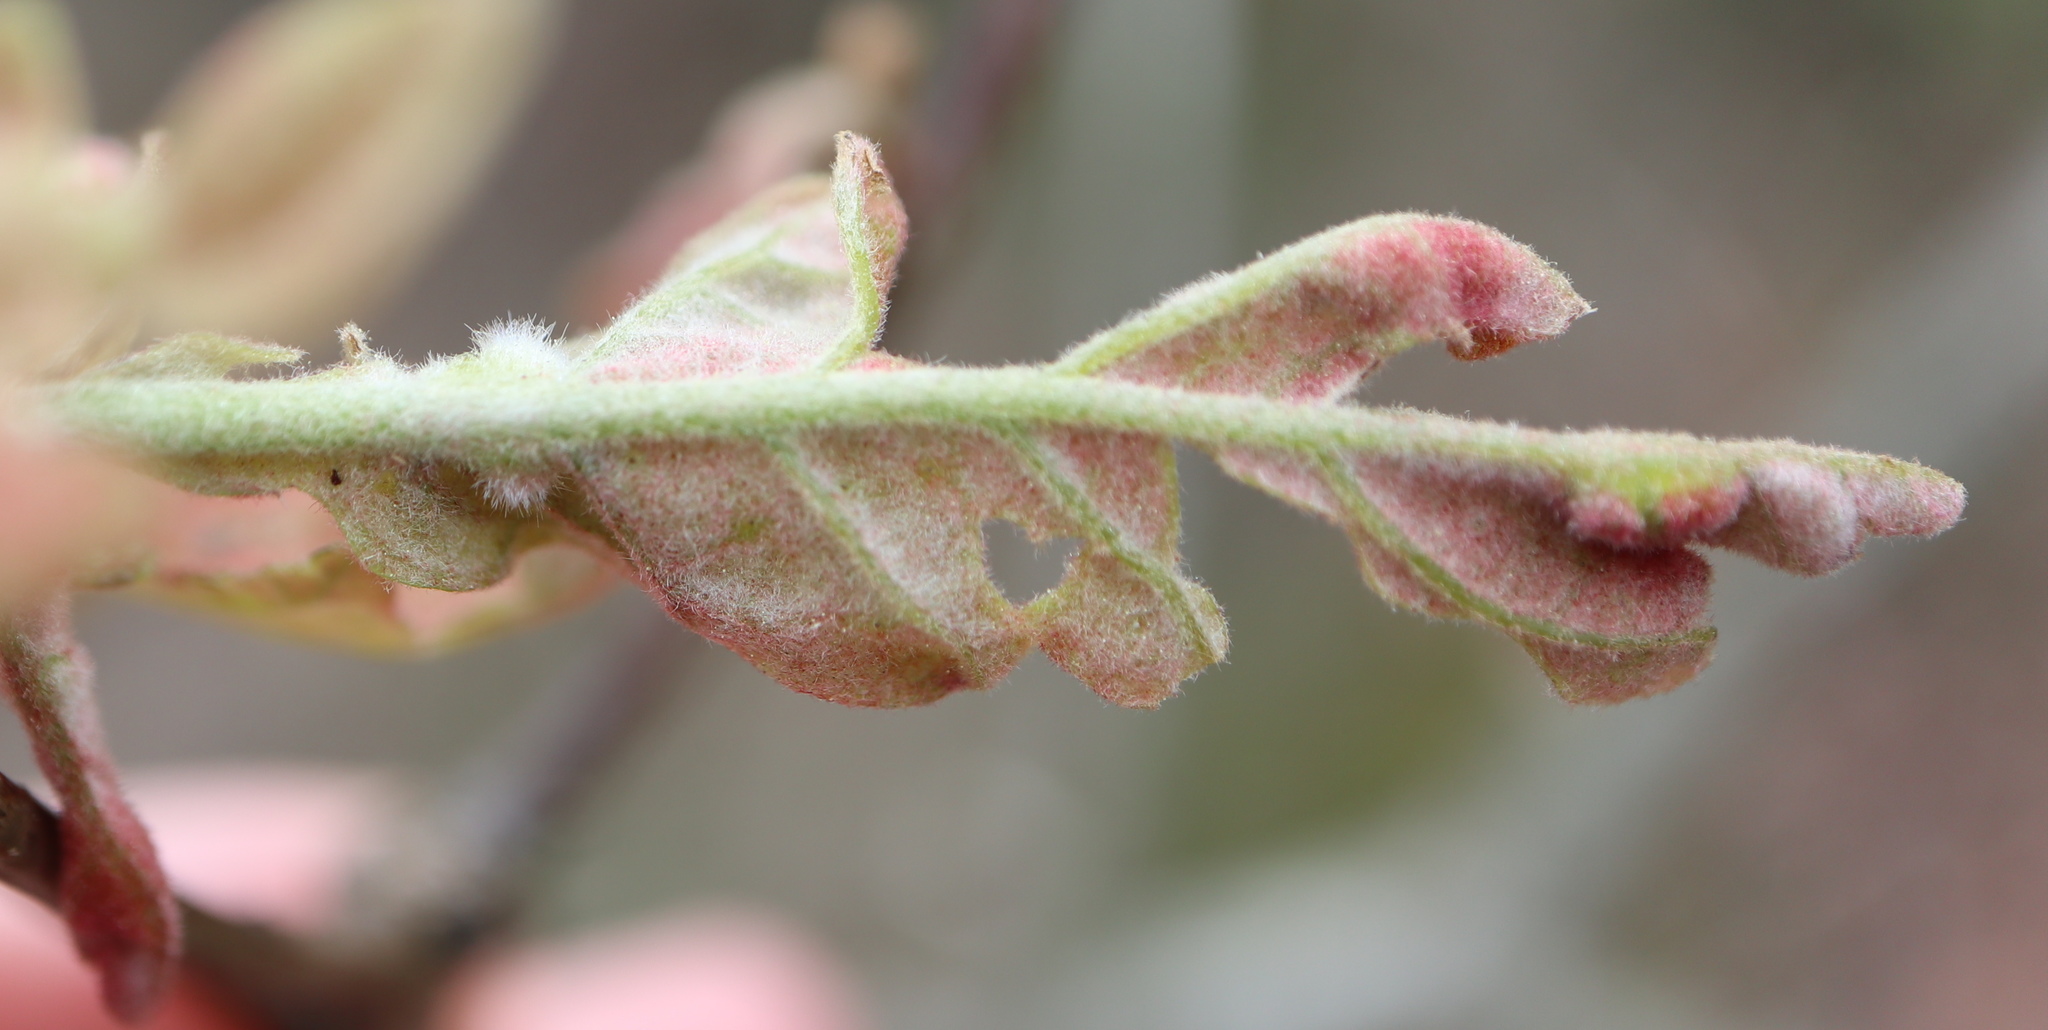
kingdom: Animalia
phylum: Arthropoda
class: Insecta
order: Hymenoptera
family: Cynipidae
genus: Neuroterus
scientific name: Neuroterus
